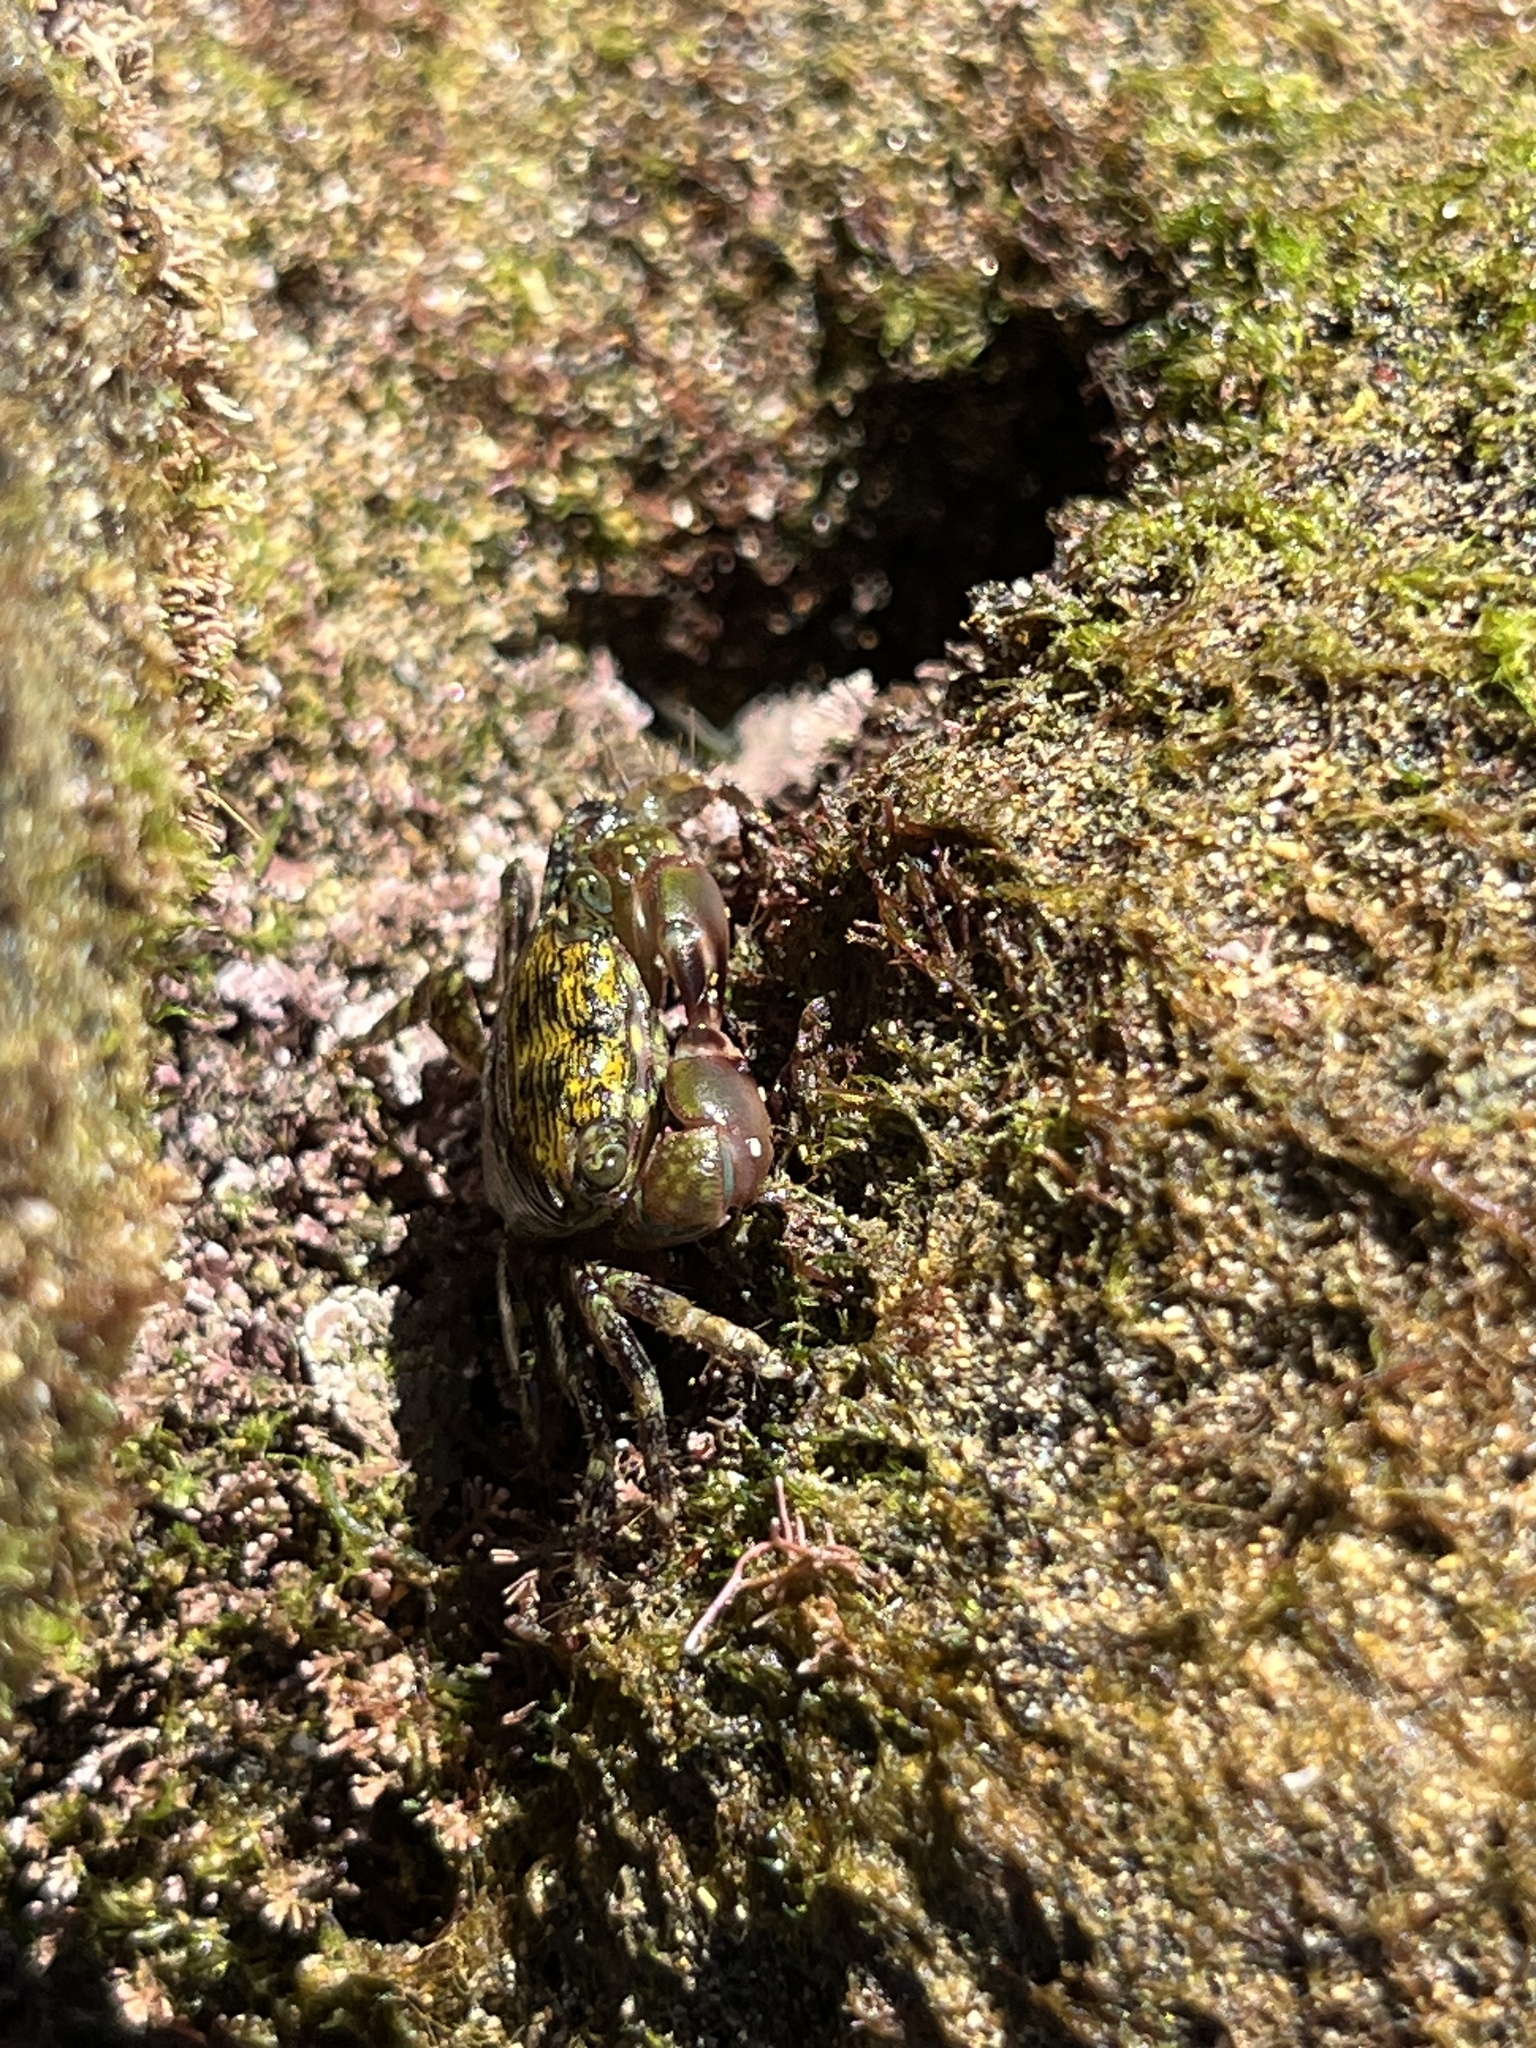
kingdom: Animalia
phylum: Arthropoda
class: Malacostraca
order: Decapoda
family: Grapsidae
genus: Pachygrapsus
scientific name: Pachygrapsus transversus
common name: Mottled shore crab
